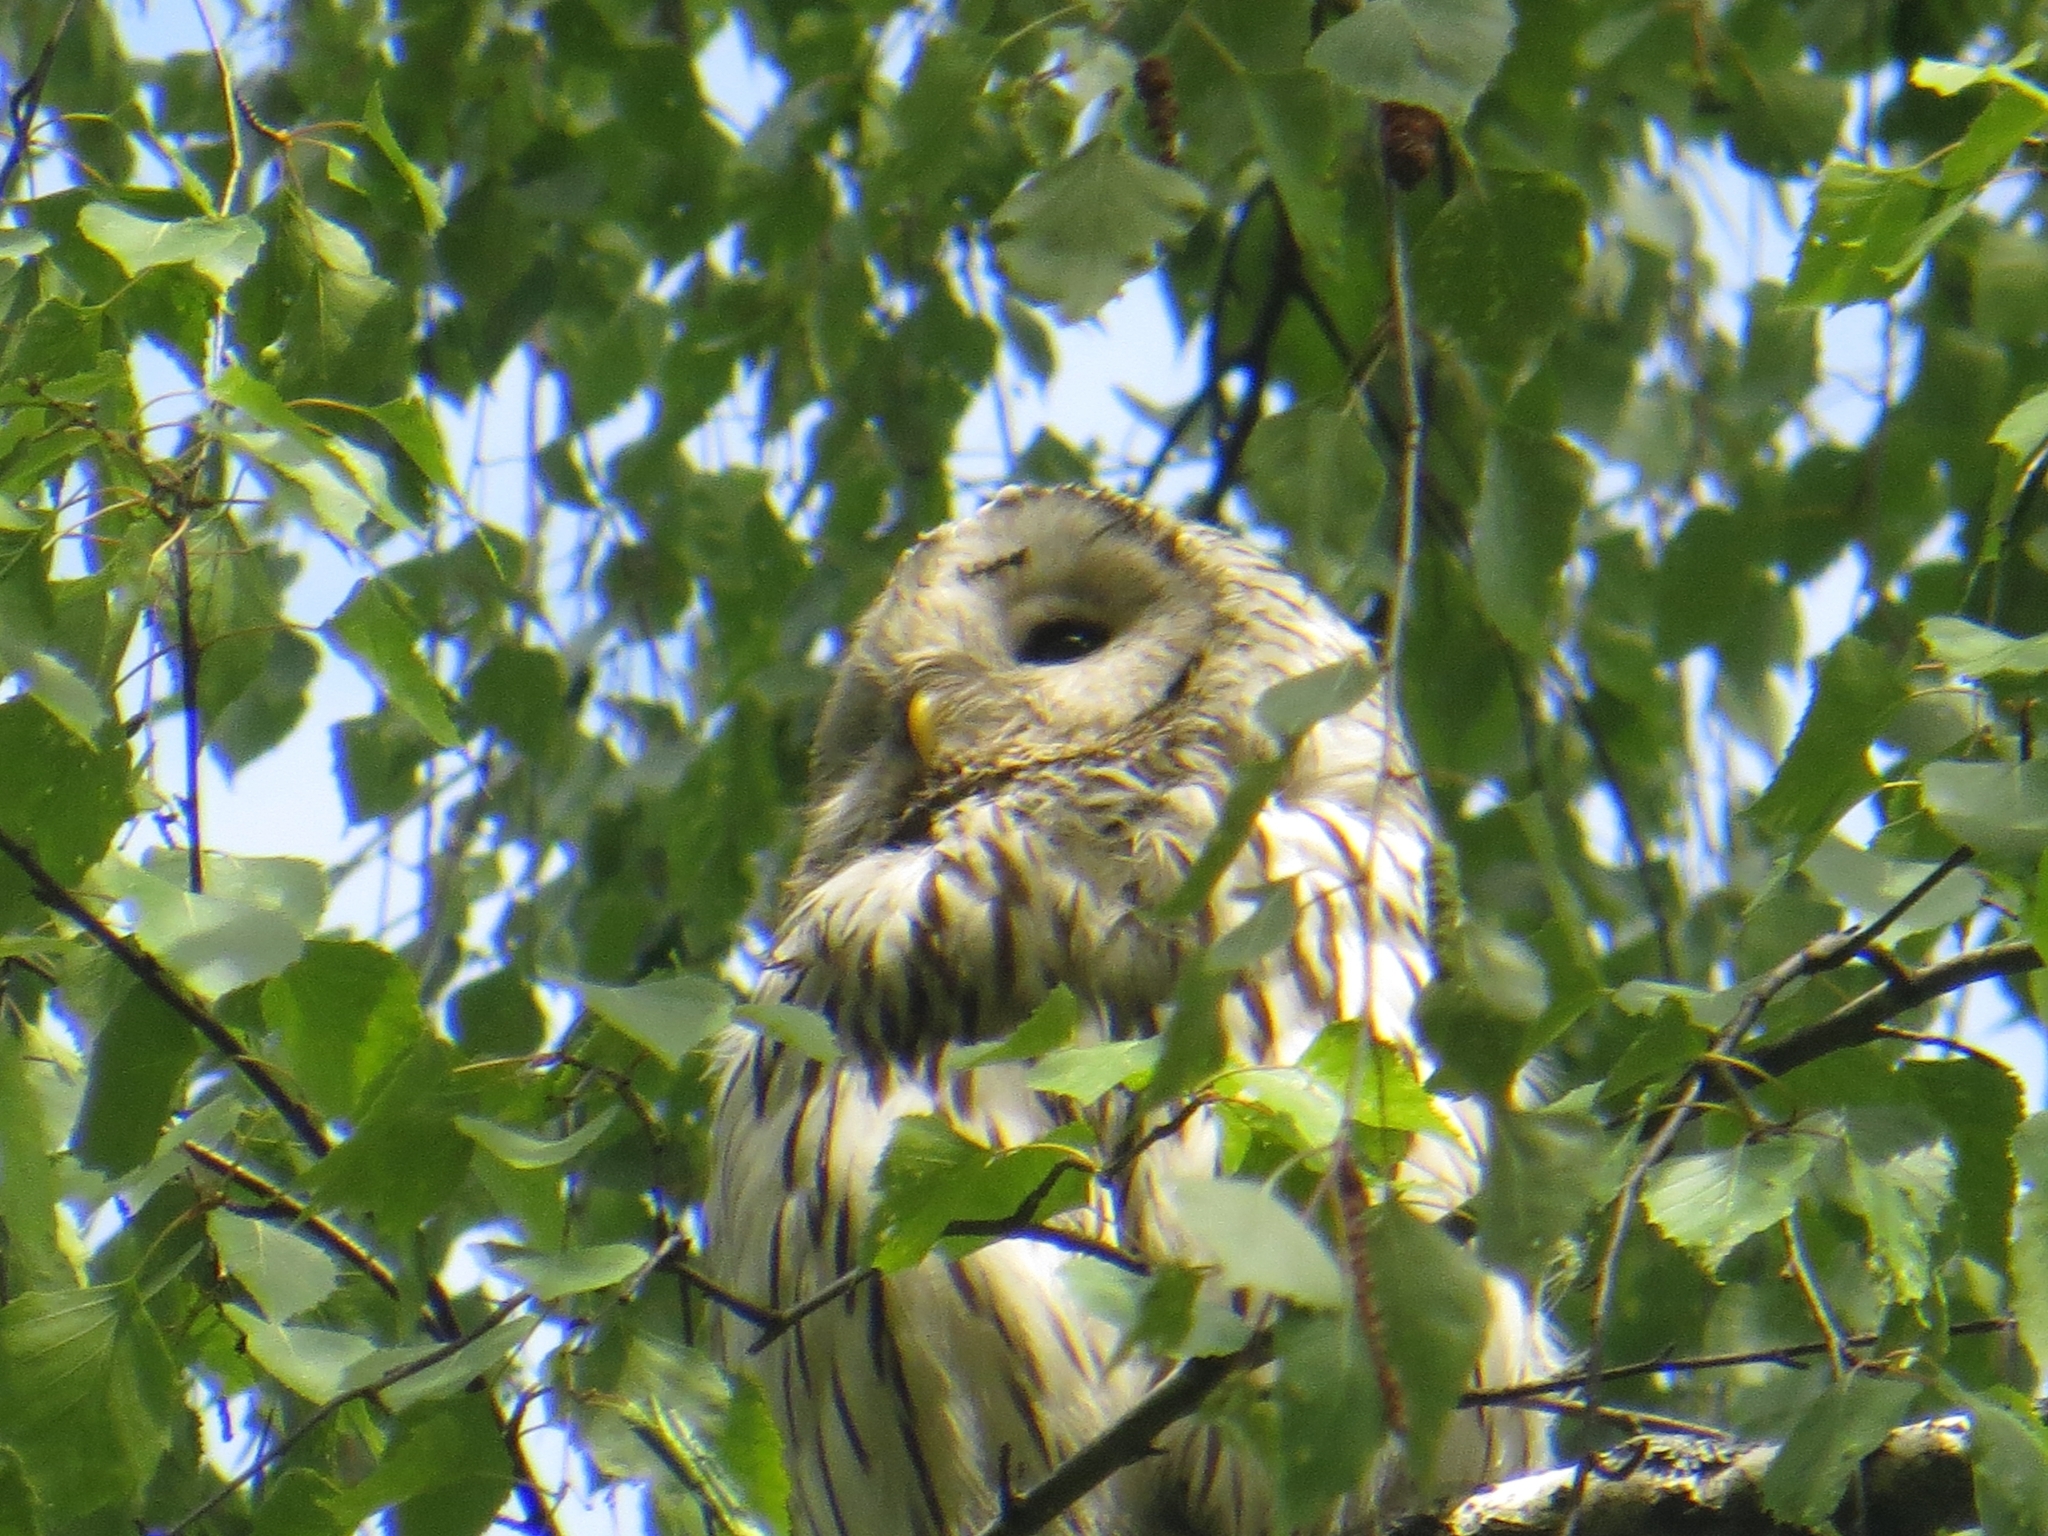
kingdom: Animalia
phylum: Chordata
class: Aves
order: Strigiformes
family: Strigidae
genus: Strix
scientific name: Strix uralensis
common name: Ural owl
